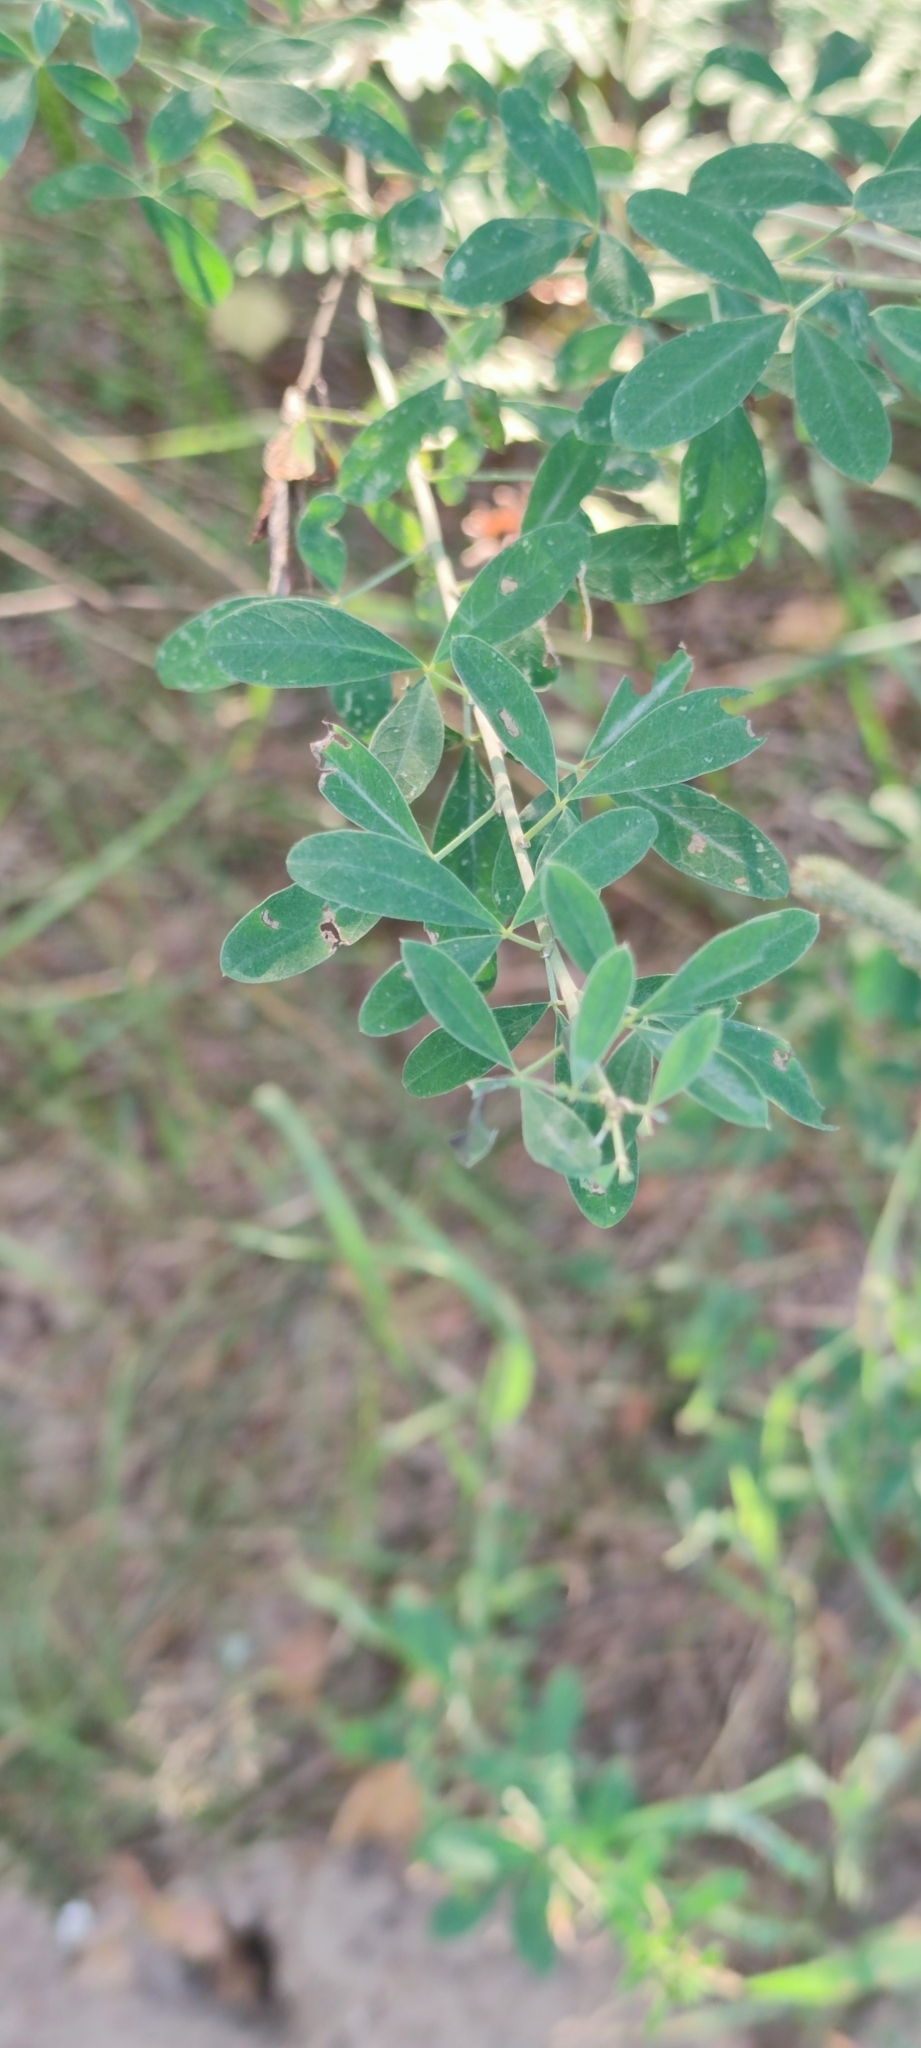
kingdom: Plantae
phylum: Tracheophyta
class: Magnoliopsida
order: Fabales
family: Fabaceae
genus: Chamaecytisus
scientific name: Chamaecytisus ruthenicus
